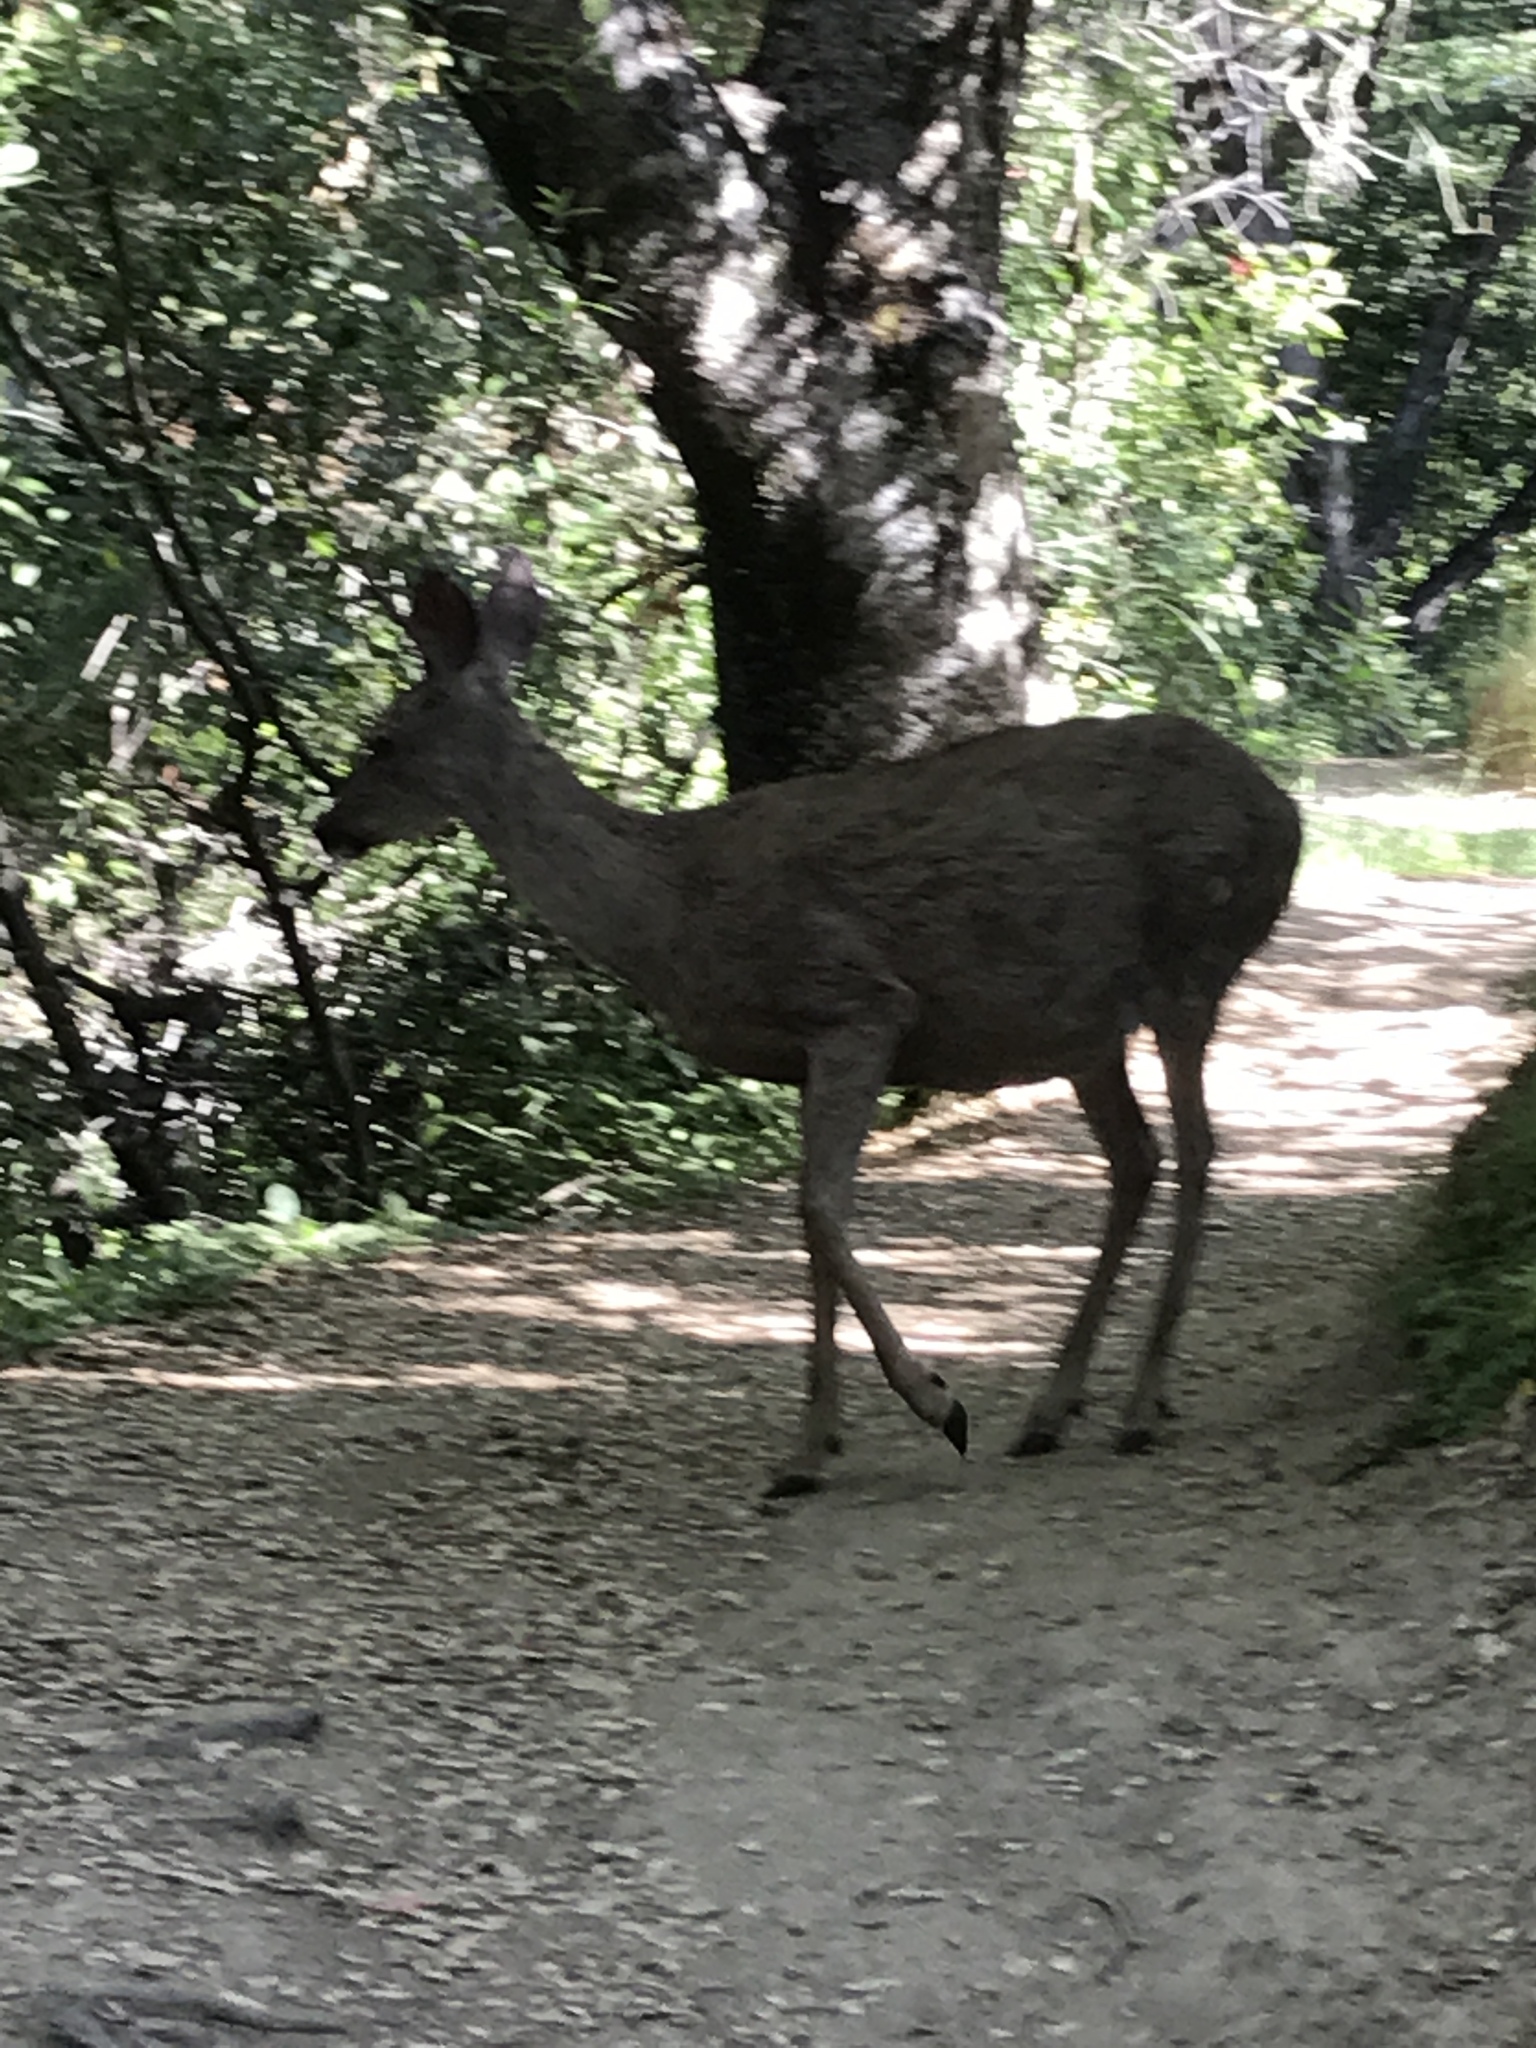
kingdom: Animalia
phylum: Chordata
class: Mammalia
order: Artiodactyla
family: Cervidae
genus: Odocoileus
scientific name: Odocoileus hemionus
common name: Mule deer
